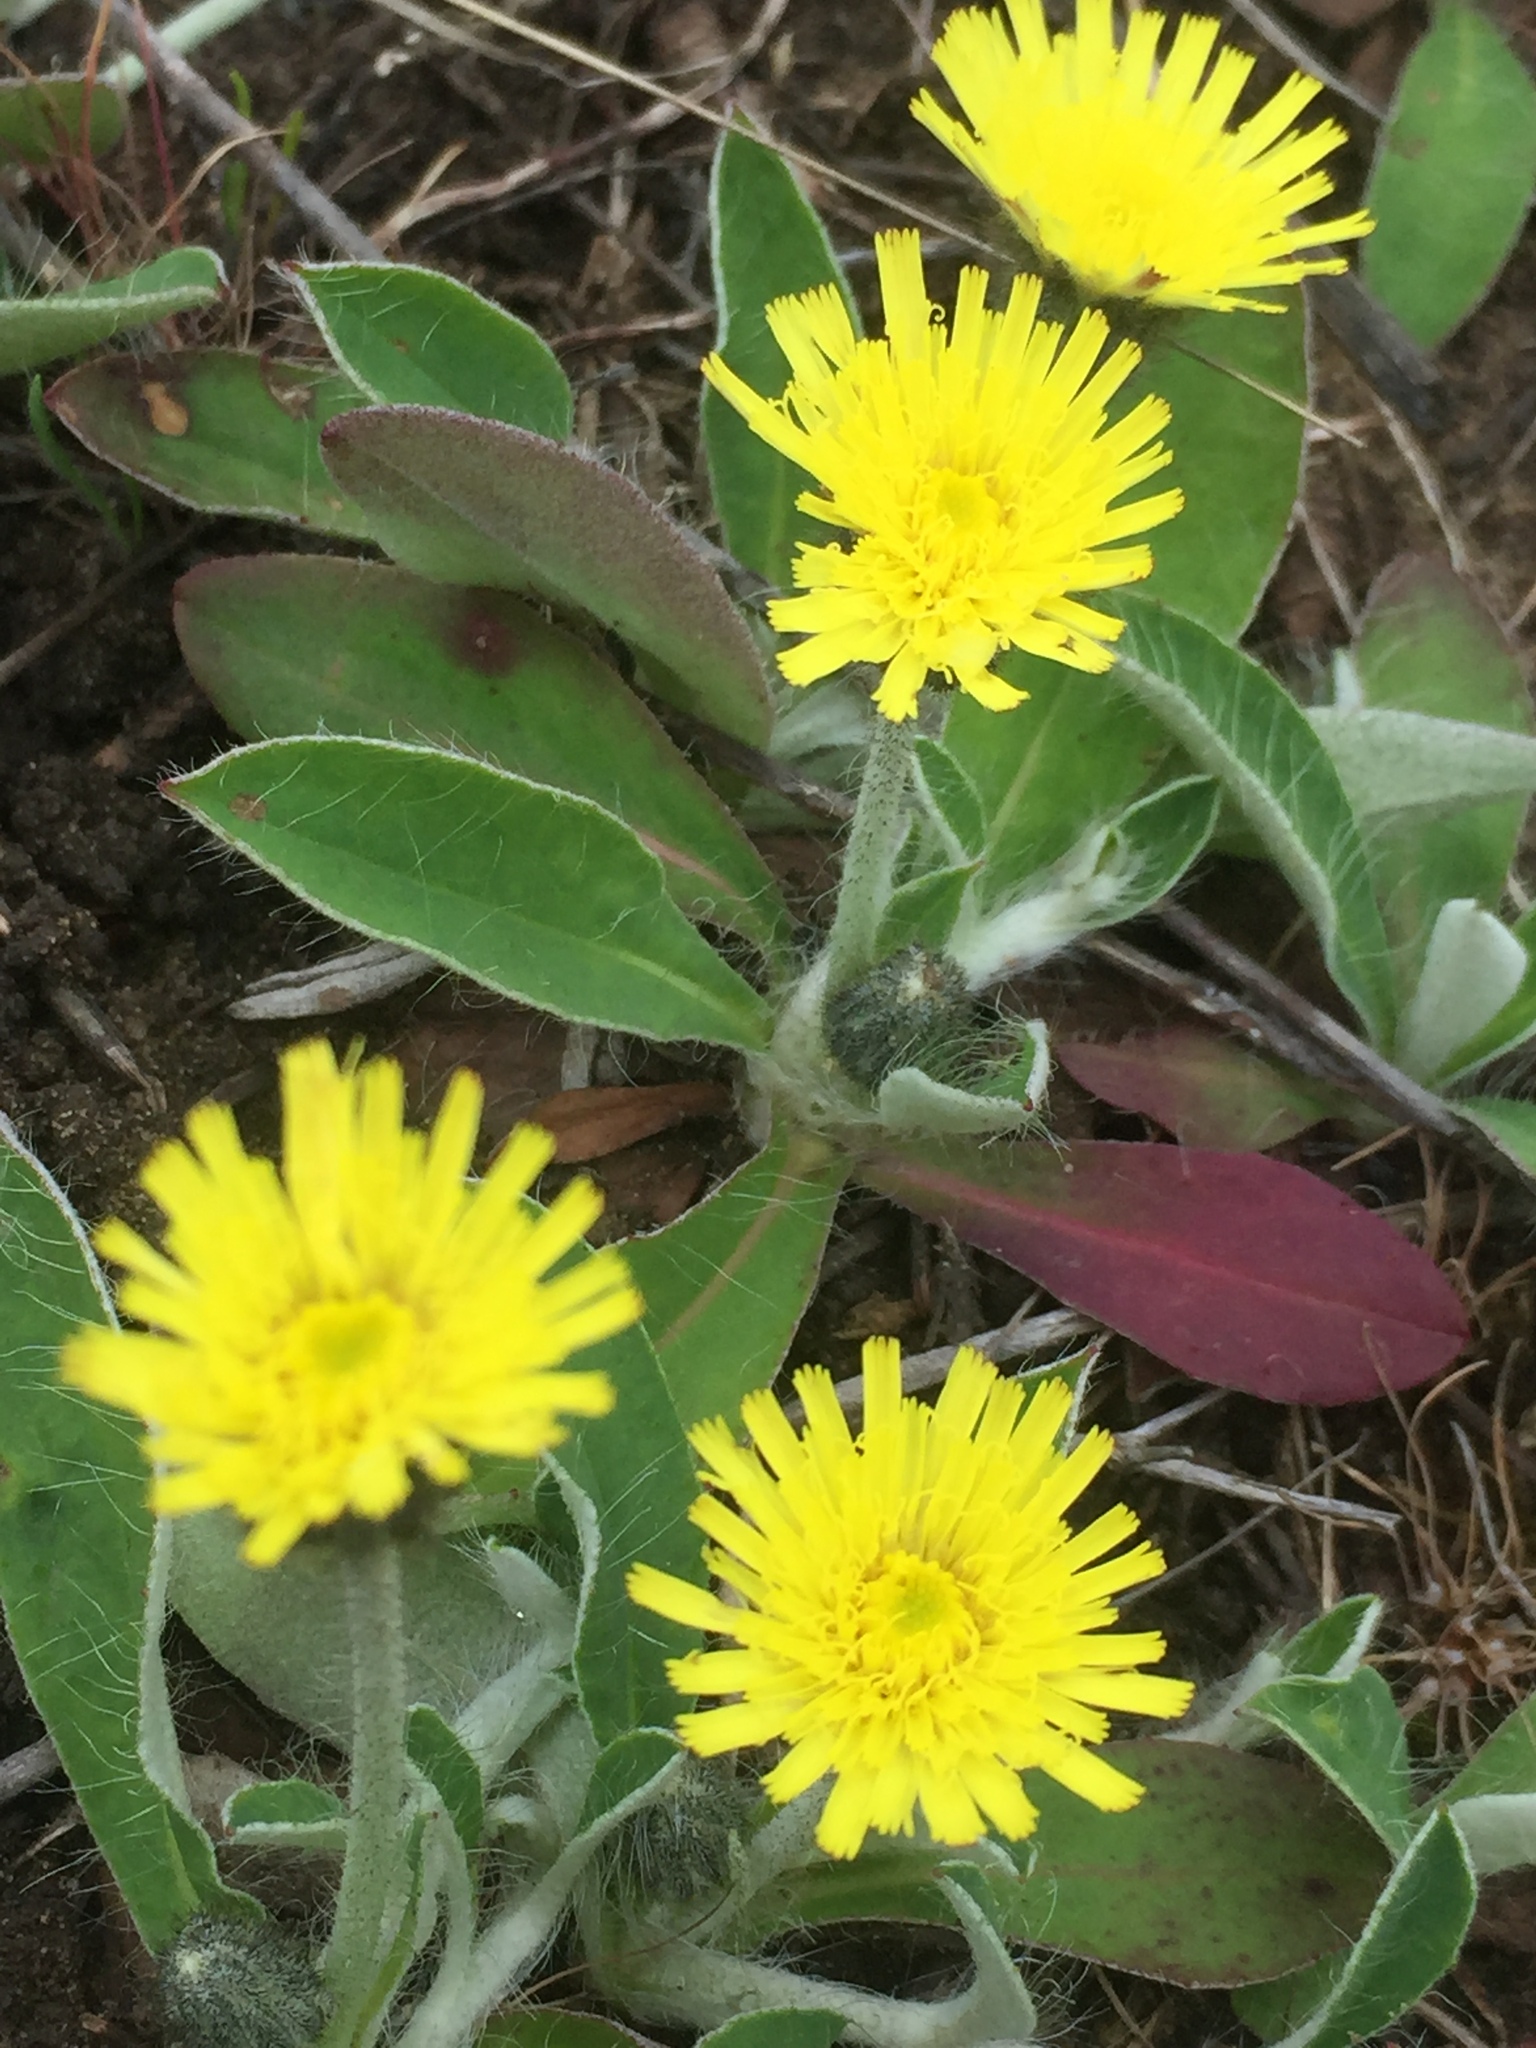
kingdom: Plantae
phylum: Tracheophyta
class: Magnoliopsida
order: Asterales
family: Asteraceae
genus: Pilosella
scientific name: Pilosella officinarum
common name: Mouse-ear hawkweed
